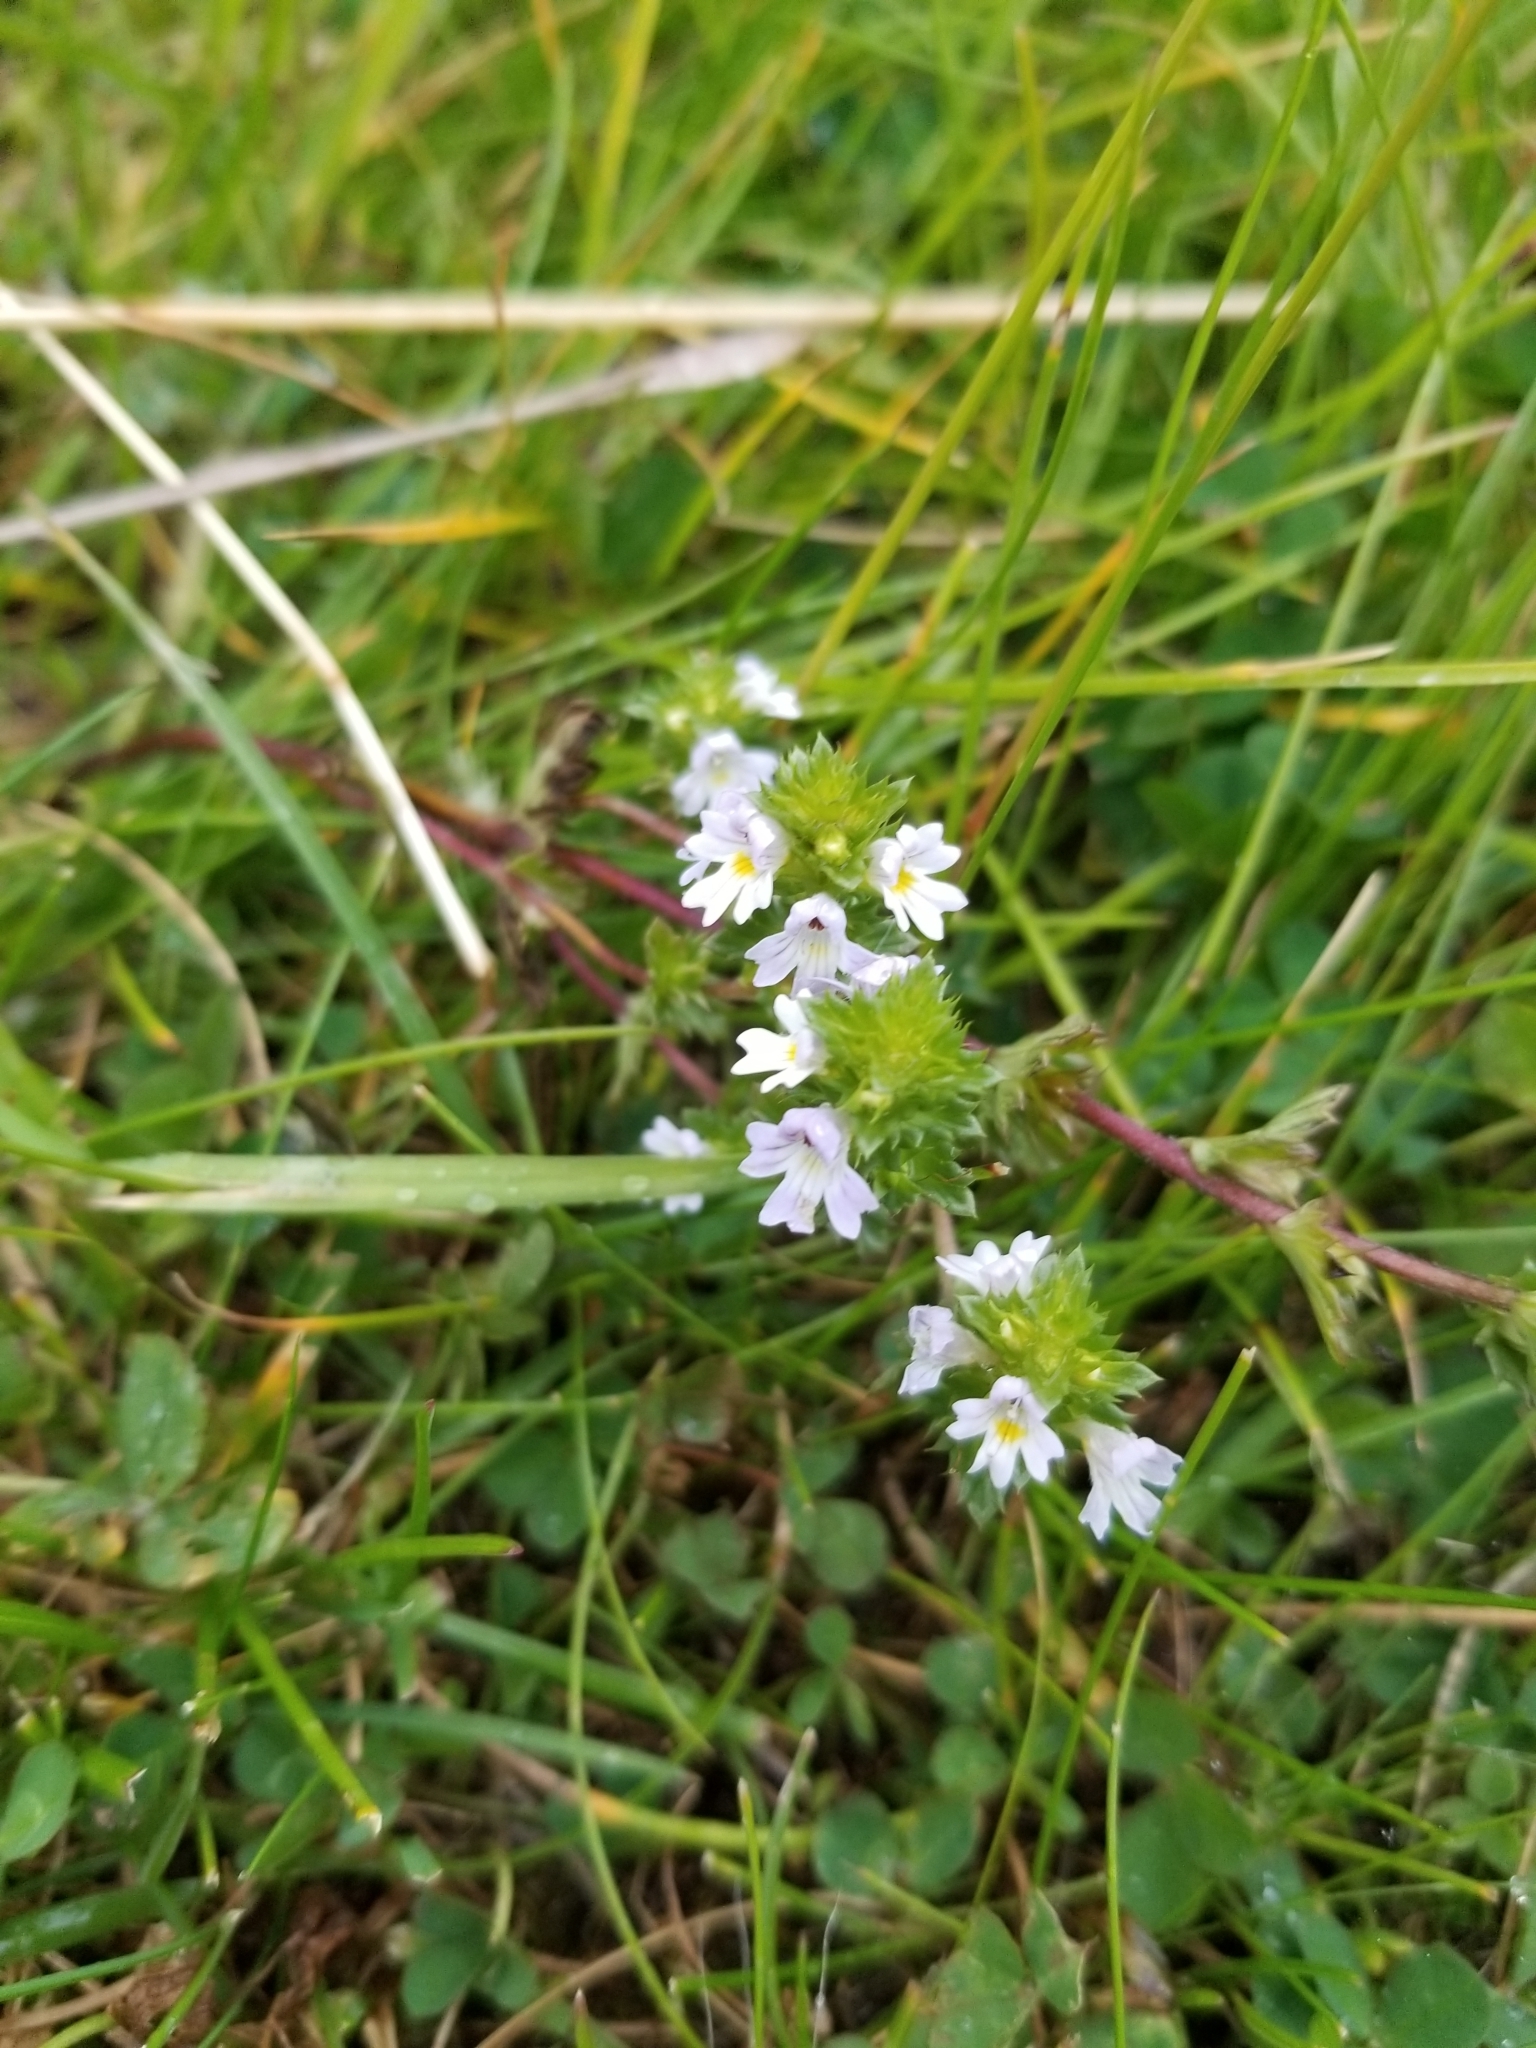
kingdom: Plantae
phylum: Tracheophyta
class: Magnoliopsida
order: Lamiales
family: Orobanchaceae
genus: Euphrasia
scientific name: Euphrasia nemorosa
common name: Common eyebright
